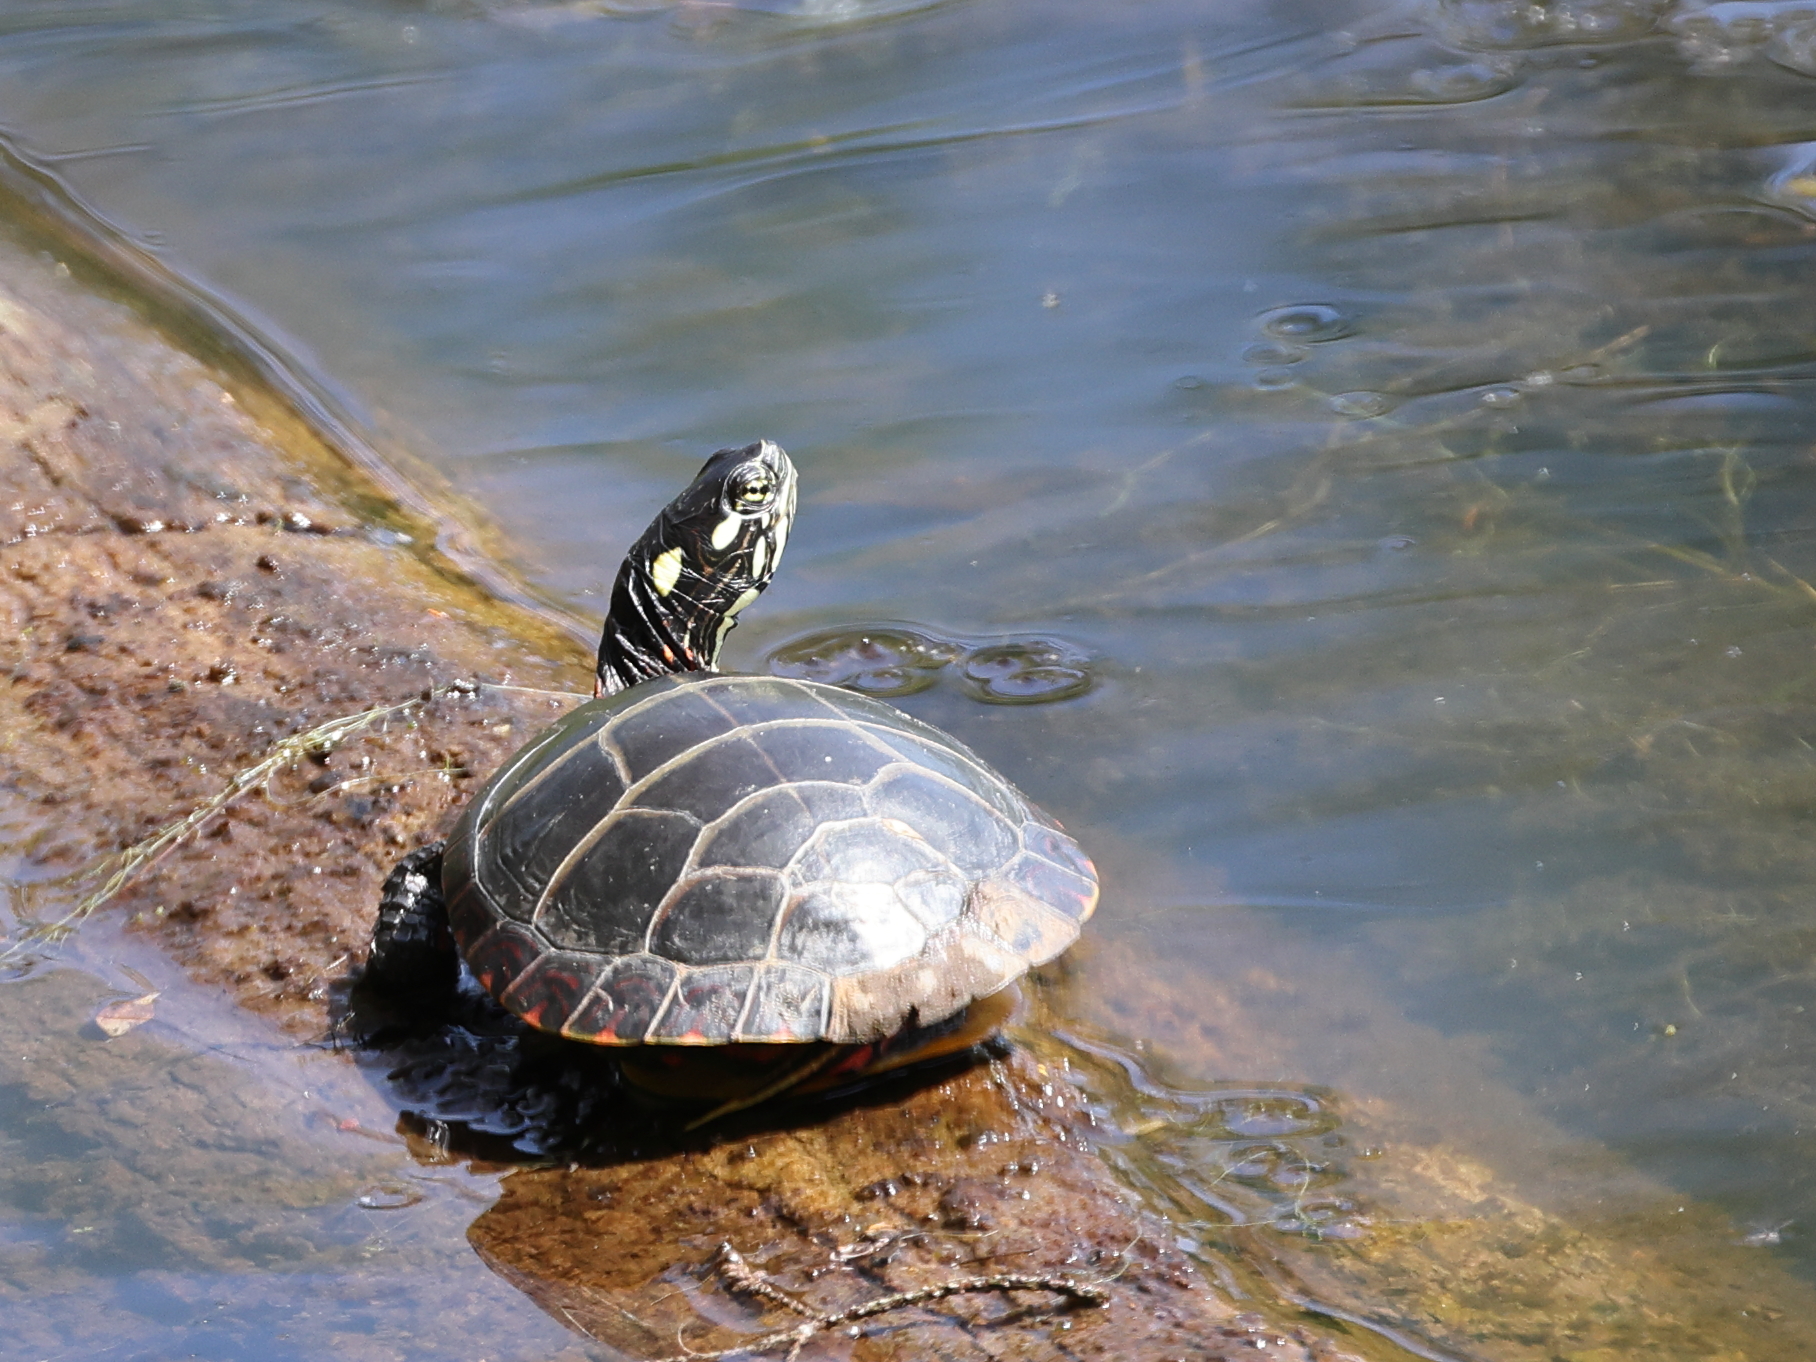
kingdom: Animalia
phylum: Chordata
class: Testudines
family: Emydidae
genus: Chrysemys
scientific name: Chrysemys picta
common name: Painted turtle
